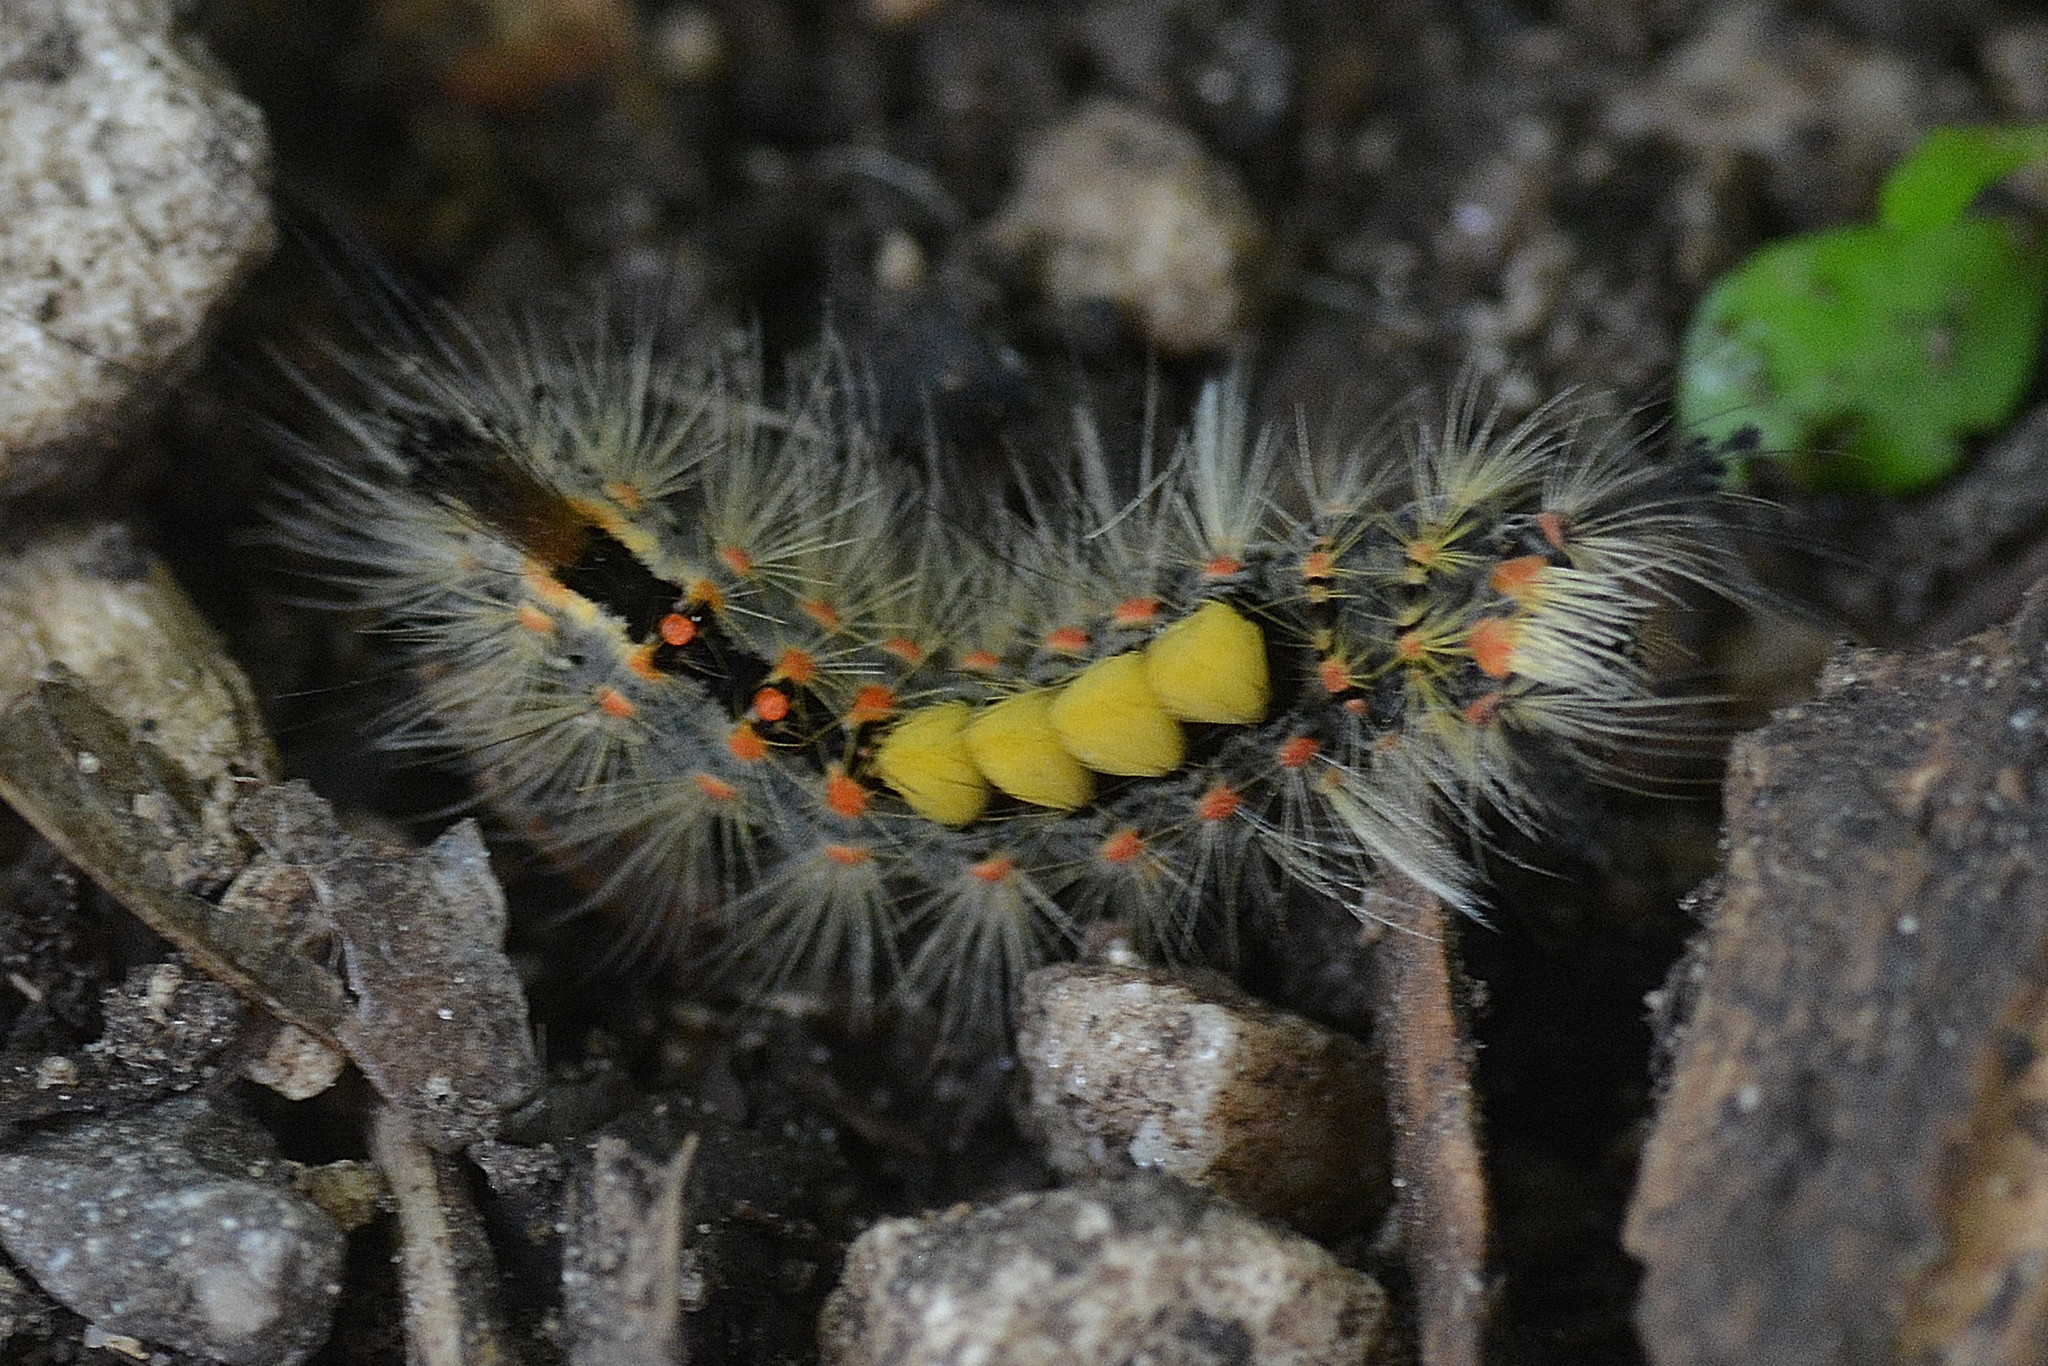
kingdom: Animalia
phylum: Arthropoda
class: Insecta
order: Lepidoptera
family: Erebidae
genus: Orgyia
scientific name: Orgyia antiqua
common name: Vapourer
